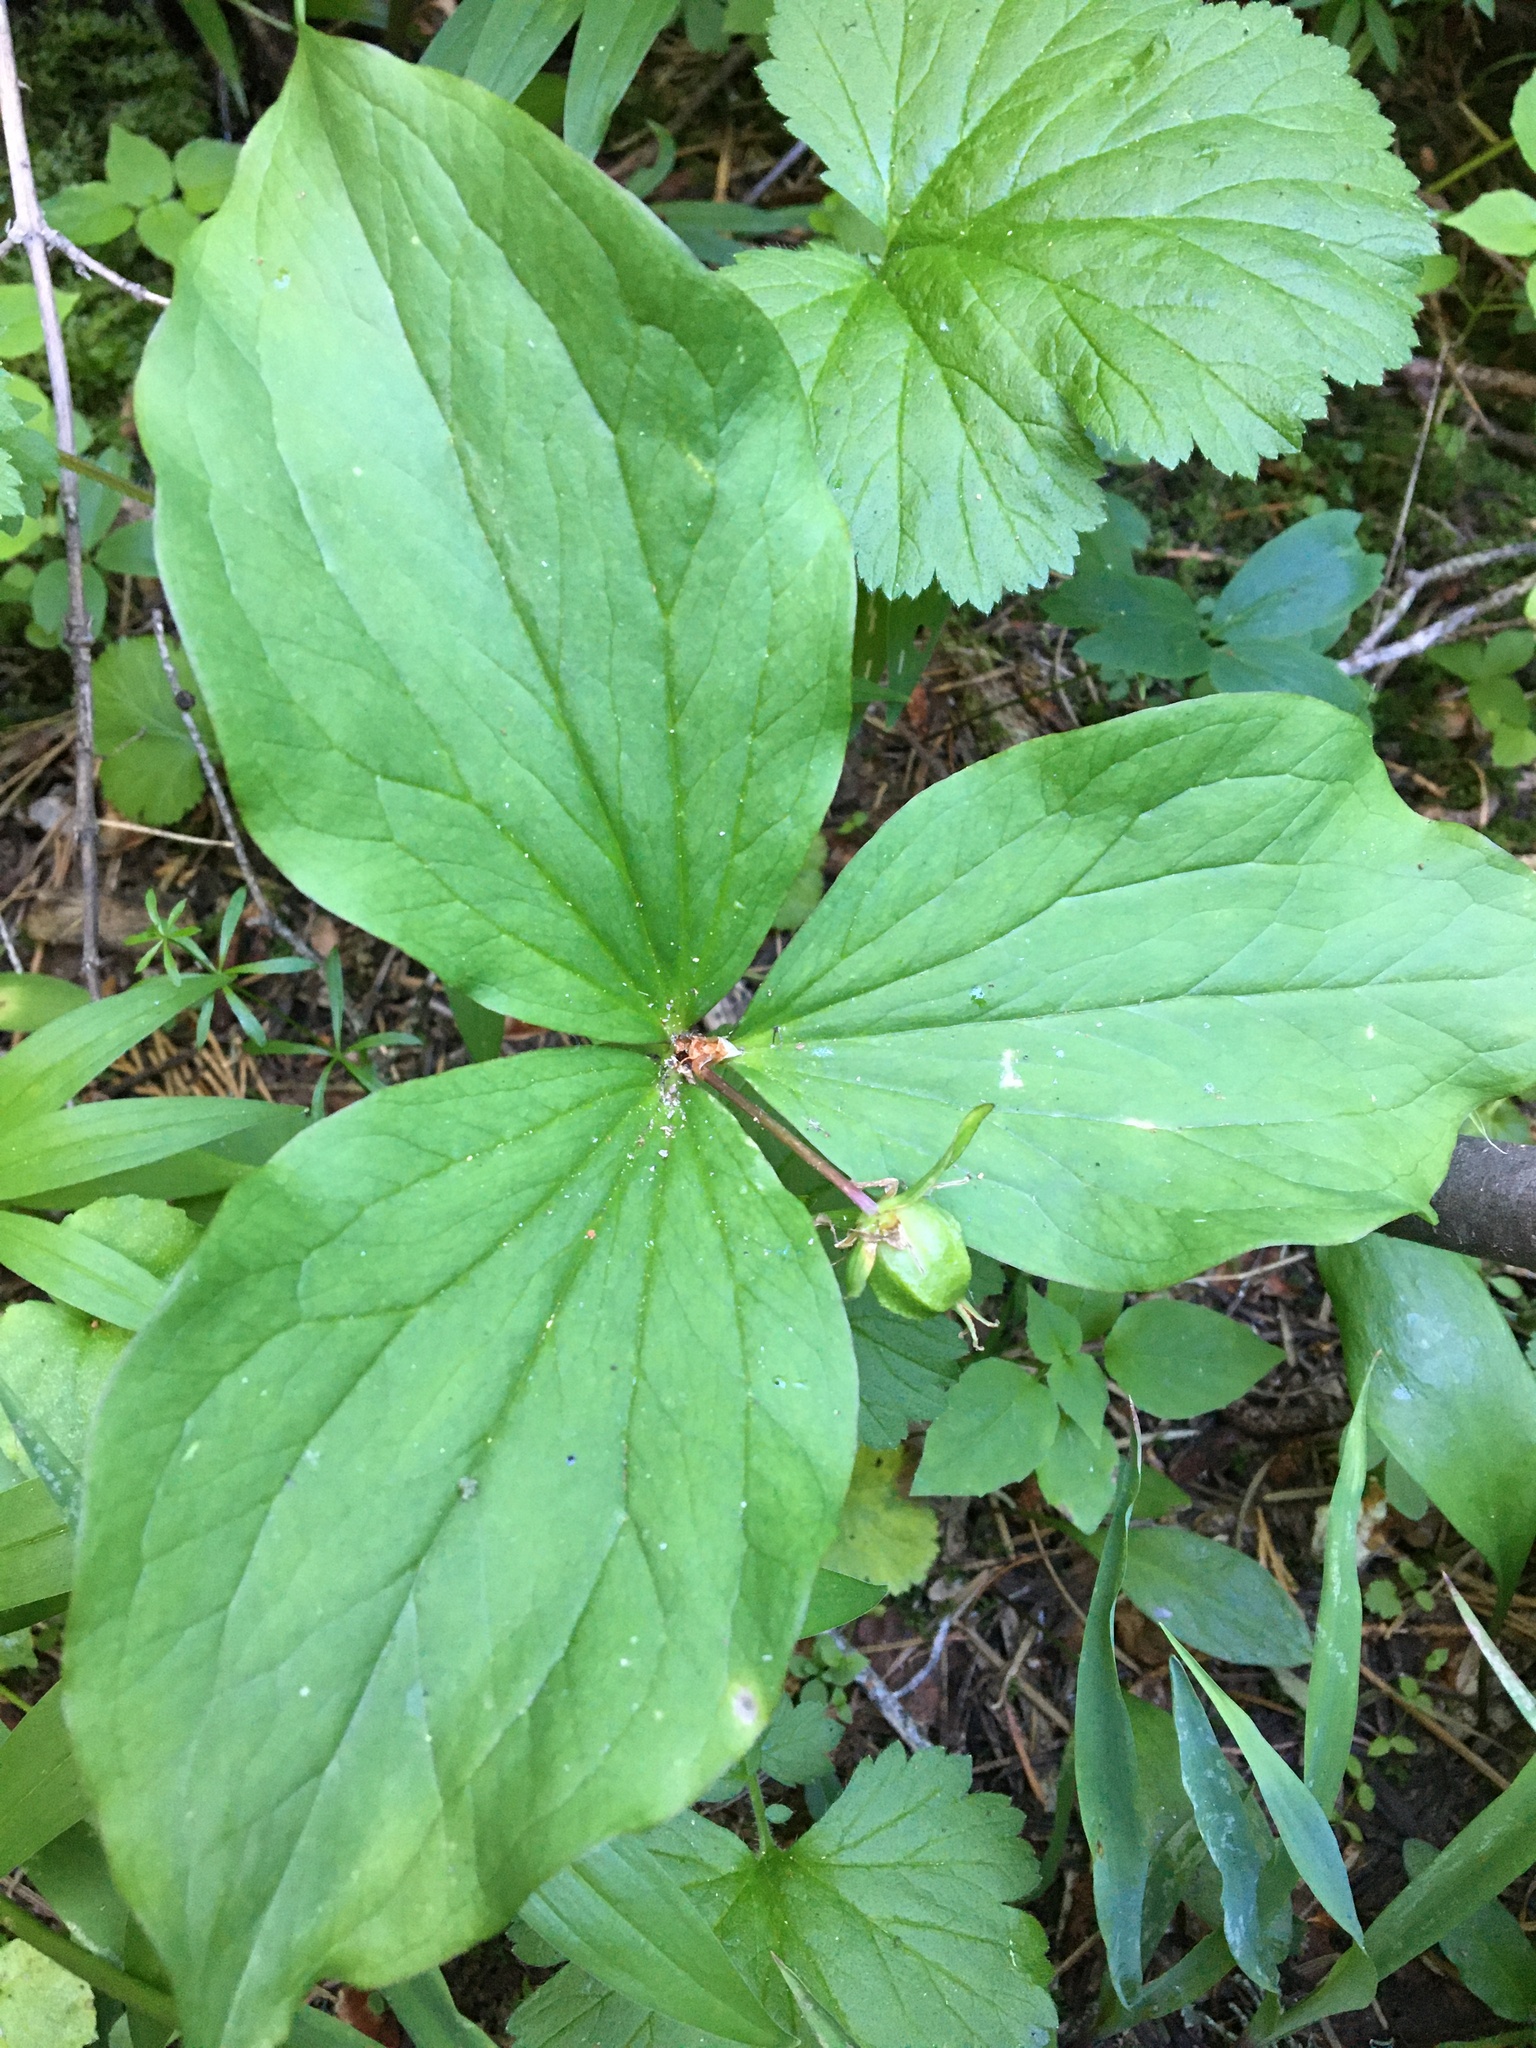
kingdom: Plantae
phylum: Tracheophyta
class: Liliopsida
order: Liliales
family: Melanthiaceae
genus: Trillium
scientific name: Trillium ovatum
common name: Pacific trillium
